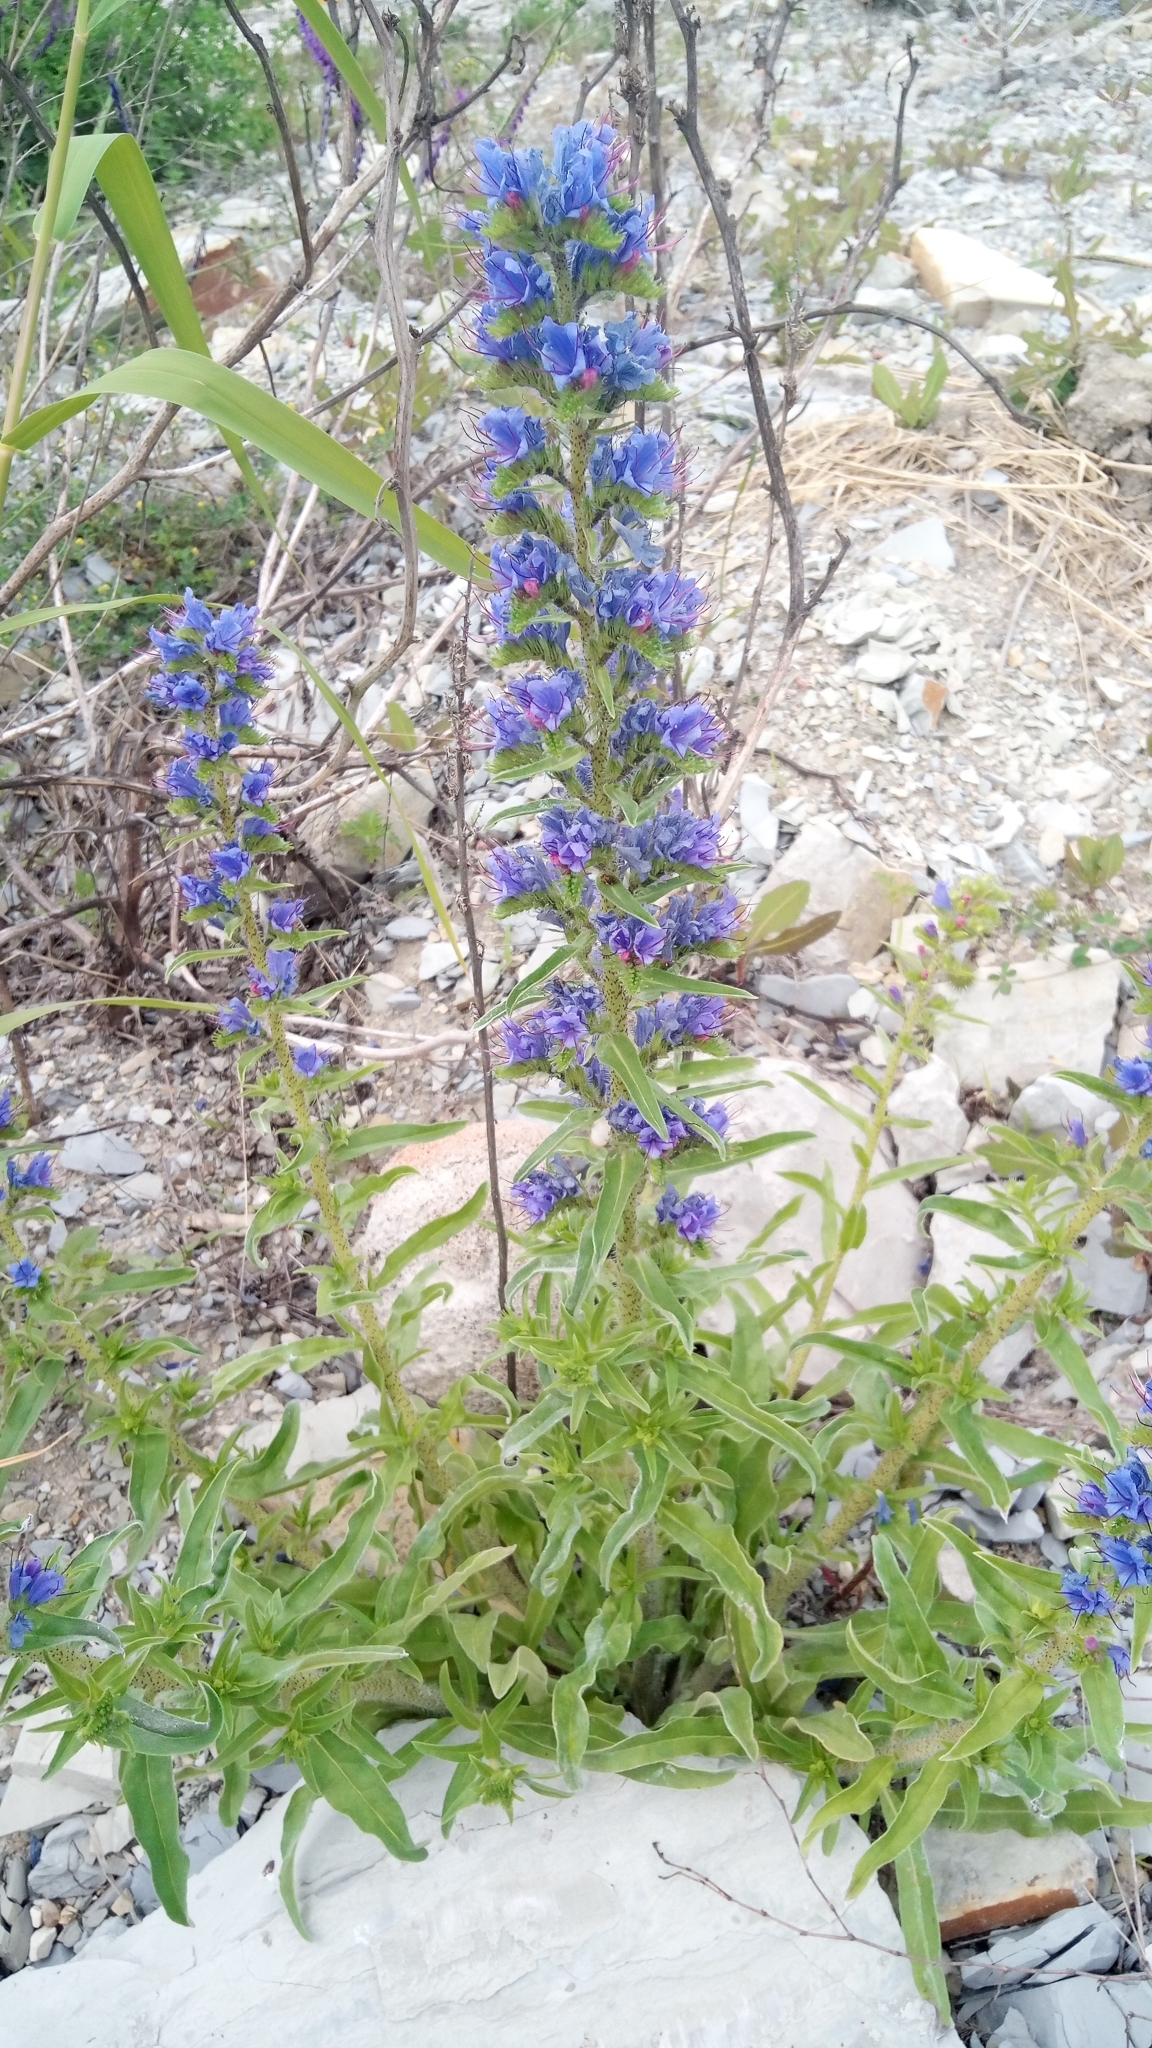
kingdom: Plantae
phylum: Tracheophyta
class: Magnoliopsida
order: Boraginales
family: Boraginaceae
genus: Echium
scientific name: Echium vulgare
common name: Common viper's bugloss
